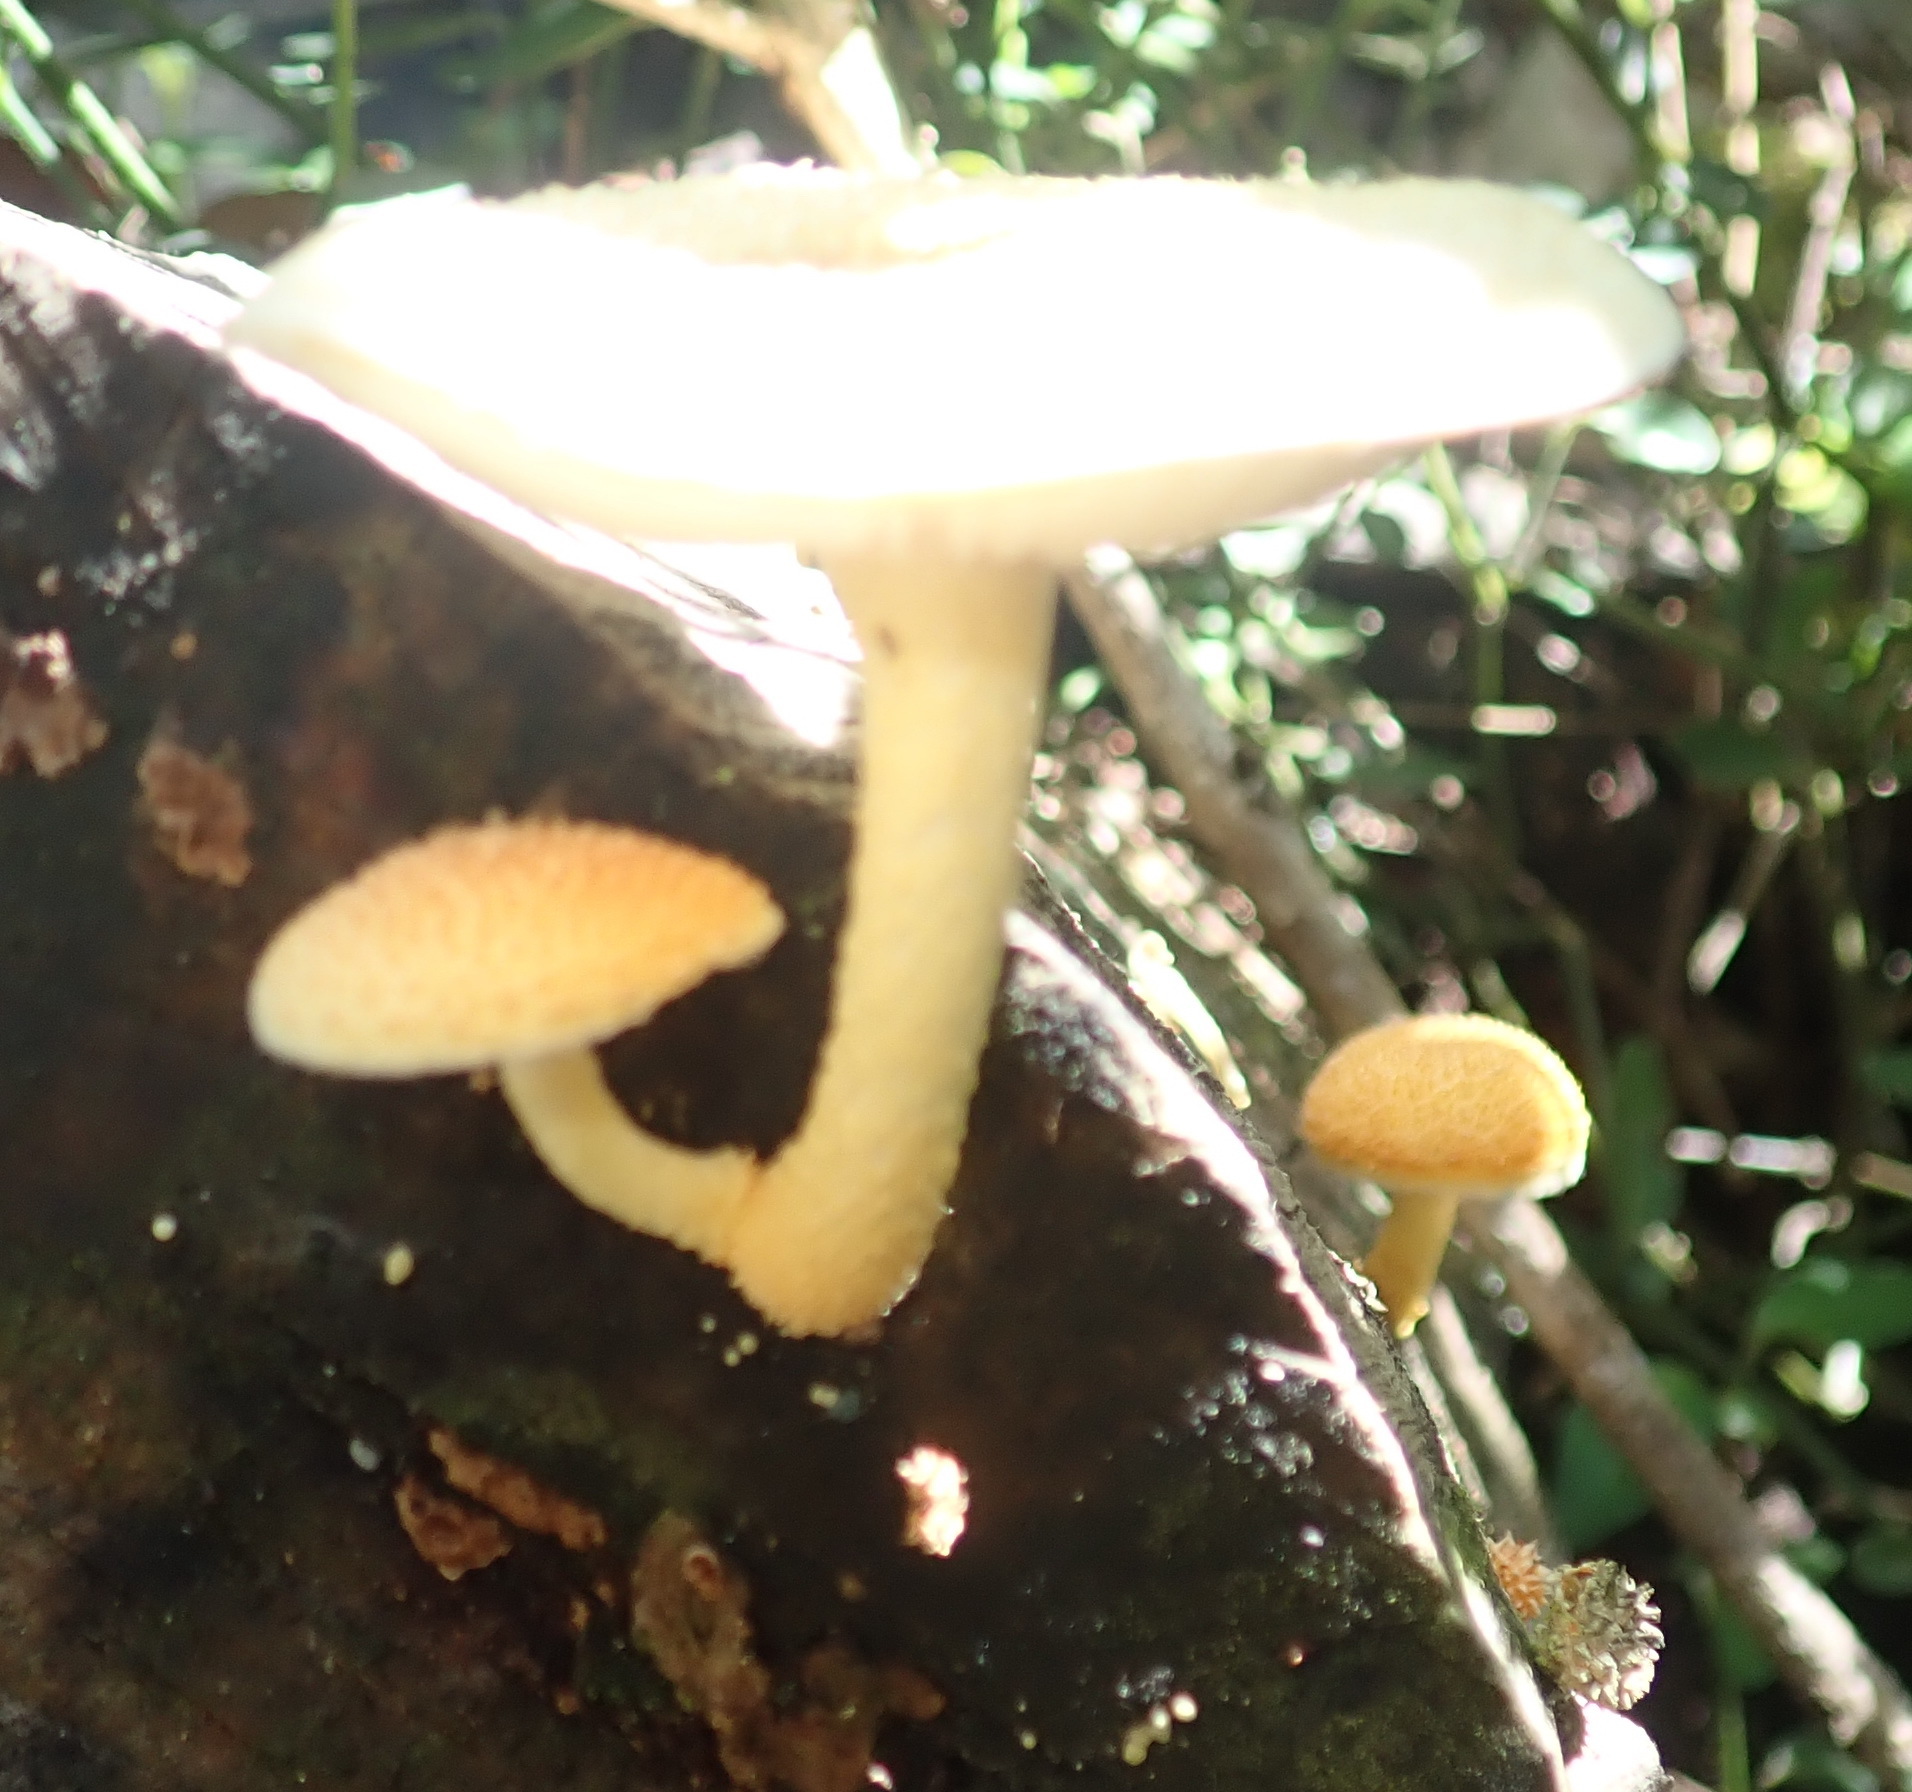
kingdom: Fungi
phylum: Basidiomycota
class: Agaricomycetes
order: Agaricales
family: Physalacriaceae
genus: Cyptotrama
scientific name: Cyptotrama asprata
